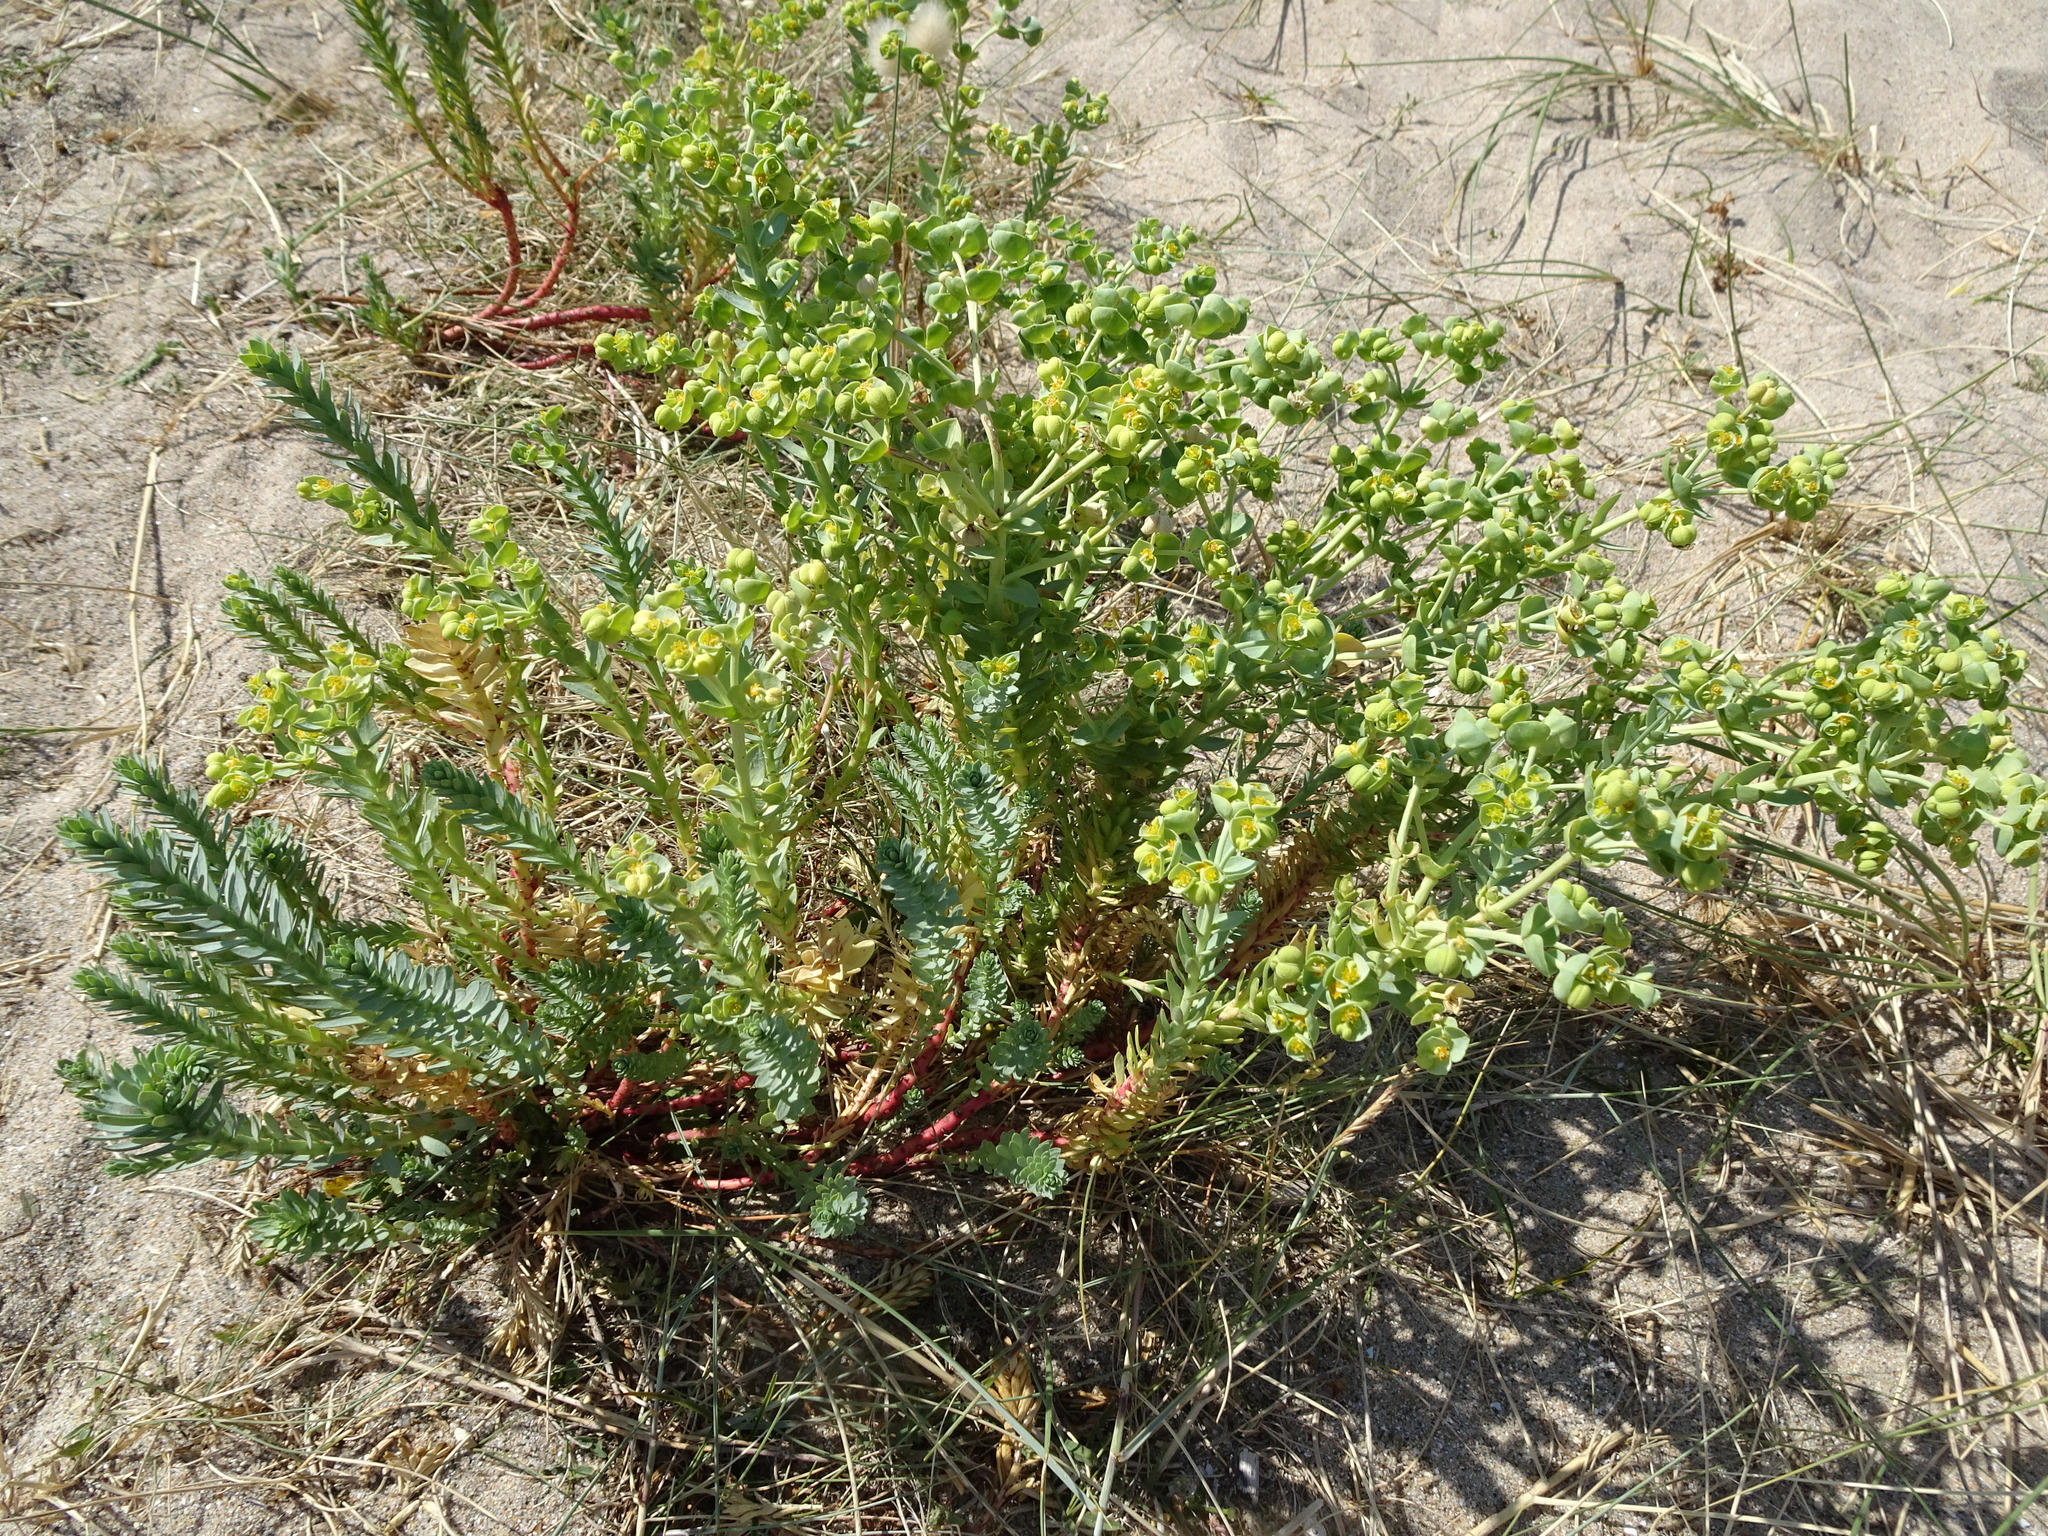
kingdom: Plantae
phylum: Tracheophyta
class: Magnoliopsida
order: Malpighiales
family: Euphorbiaceae
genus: Euphorbia
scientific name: Euphorbia paralias
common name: Sea spurge
